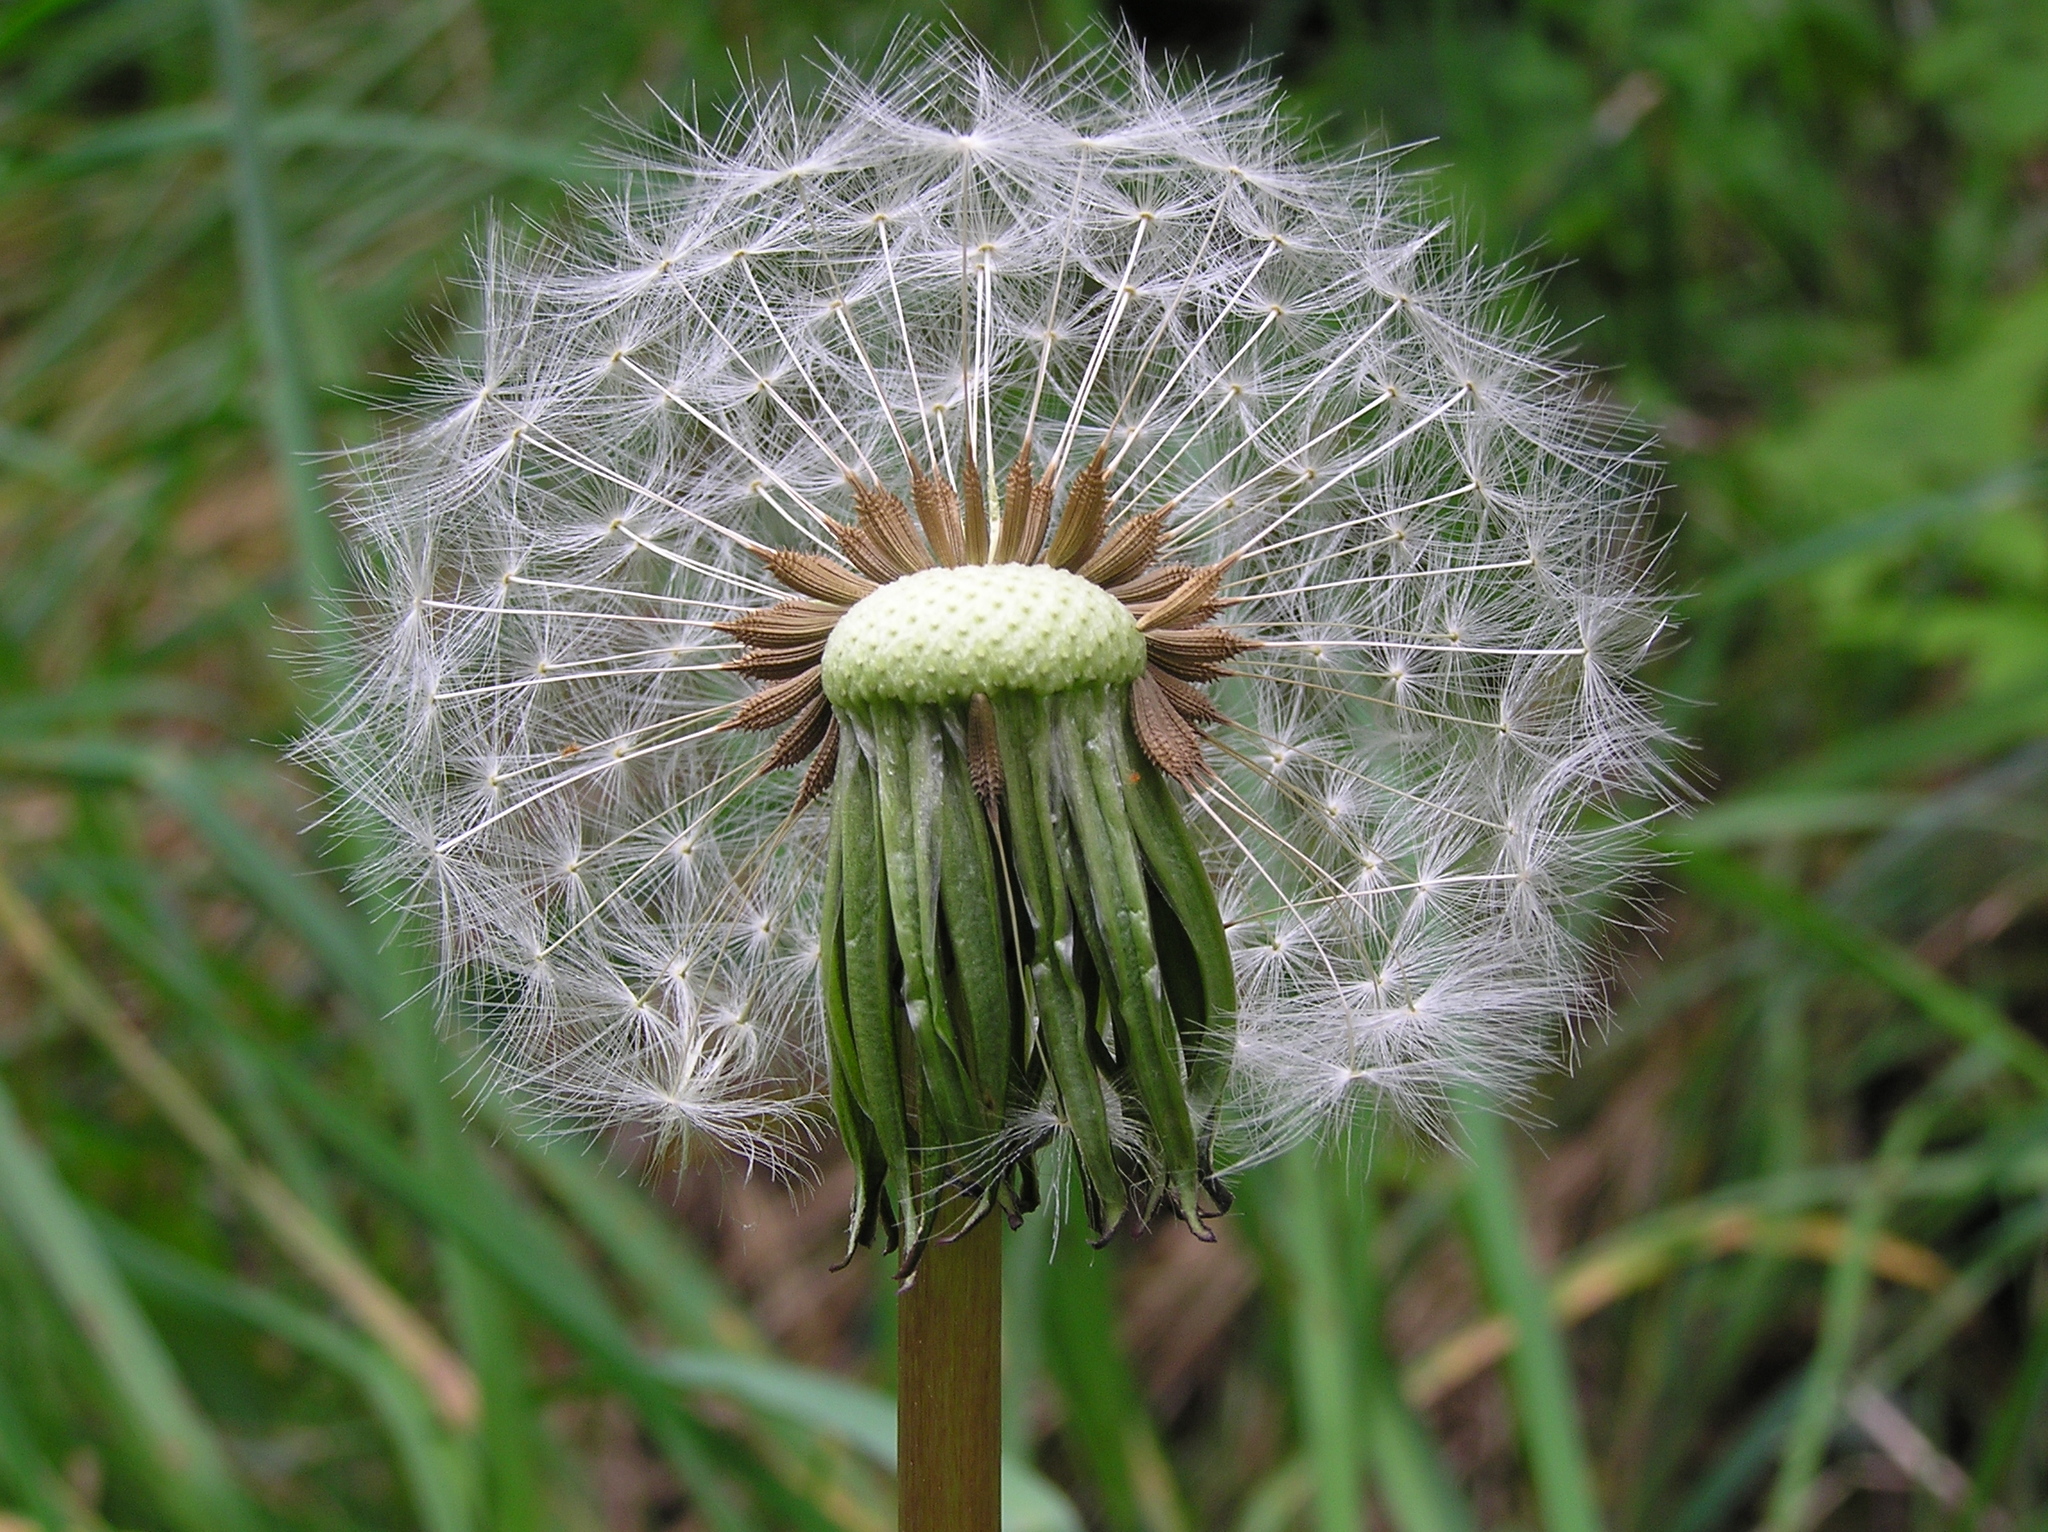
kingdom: Plantae
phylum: Tracheophyta
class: Magnoliopsida
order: Asterales
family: Asteraceae
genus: Taraxacum
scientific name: Taraxacum officinale
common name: Common dandelion
